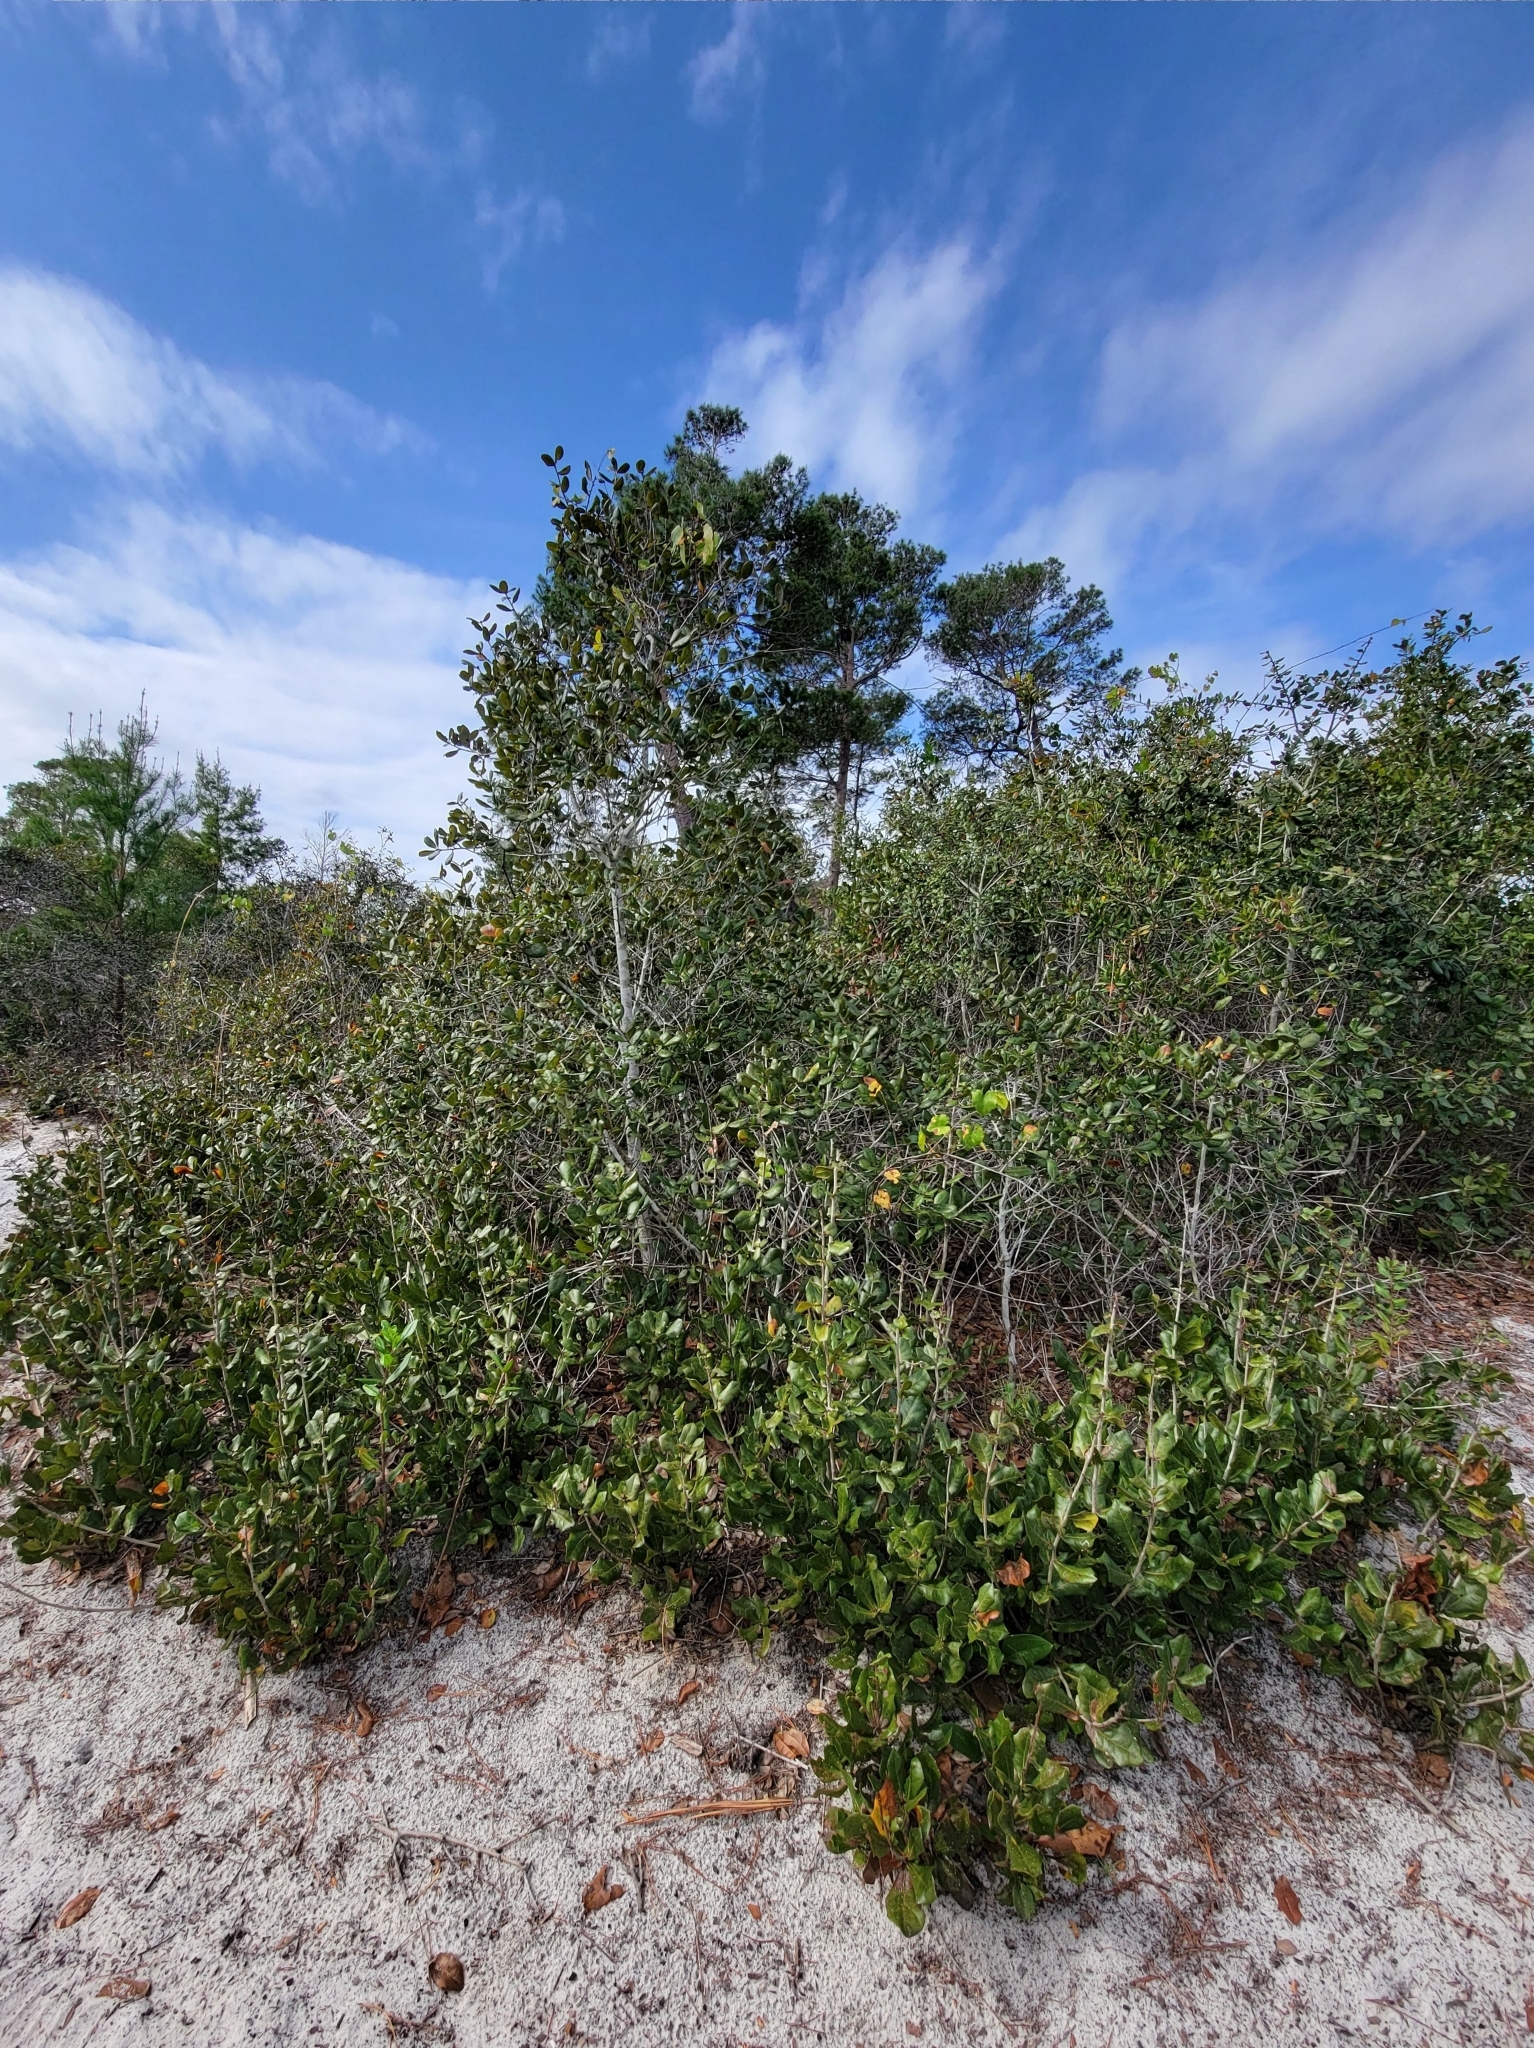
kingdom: Plantae
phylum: Tracheophyta
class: Magnoliopsida
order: Fagales
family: Fagaceae
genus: Quercus
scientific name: Quercus myrtifolia
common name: Myrtle oak
